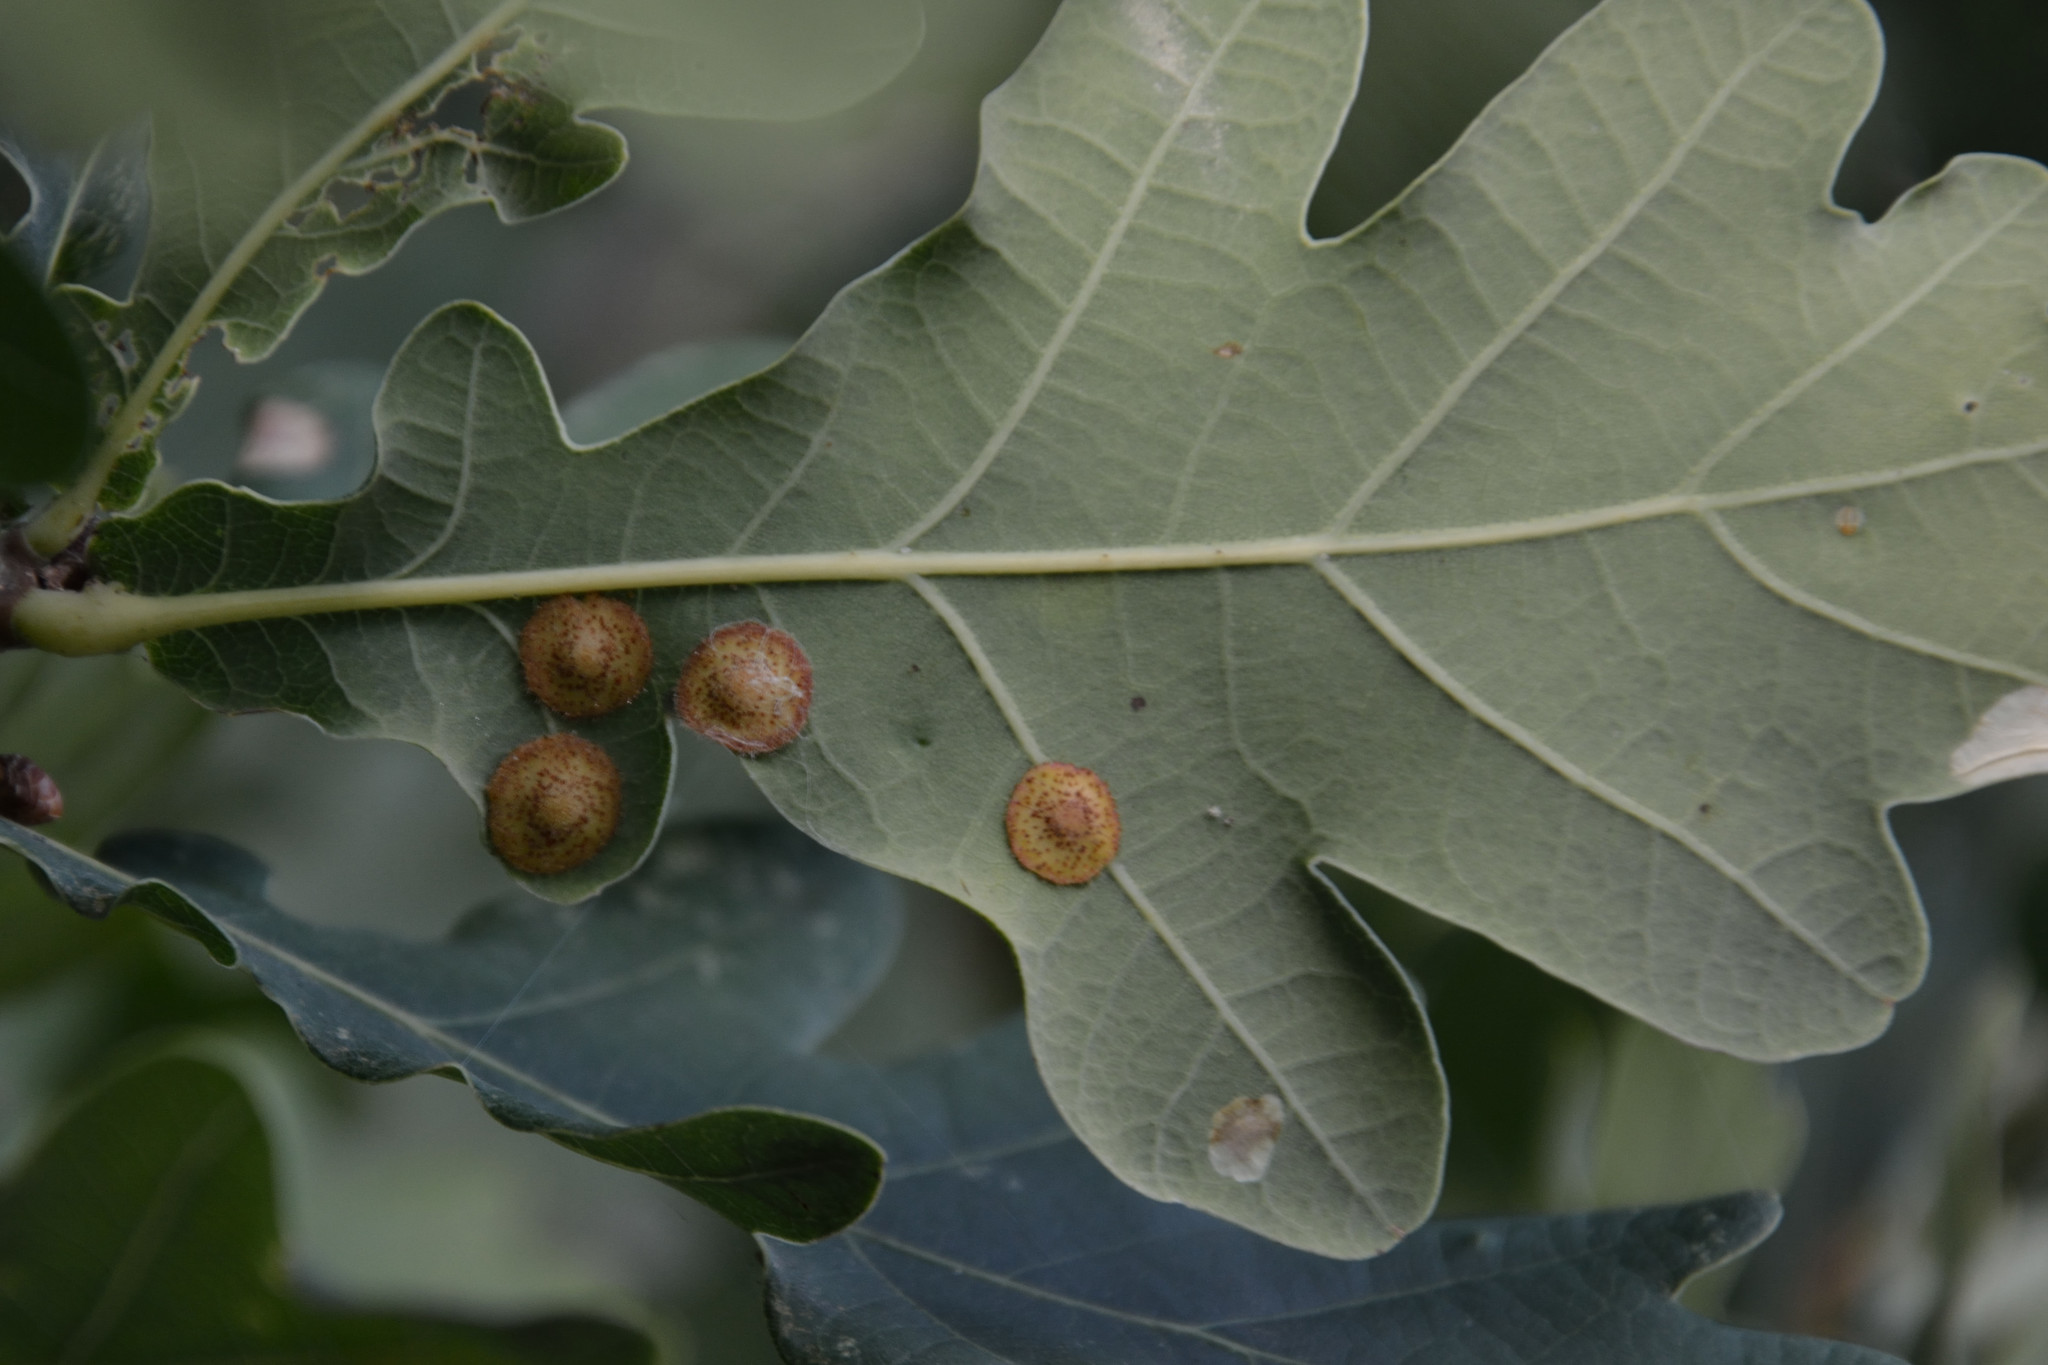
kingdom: Animalia
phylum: Arthropoda
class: Insecta
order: Hymenoptera
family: Cynipidae
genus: Neuroterus
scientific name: Neuroterus quercusbaccarum
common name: Common spangle gall
